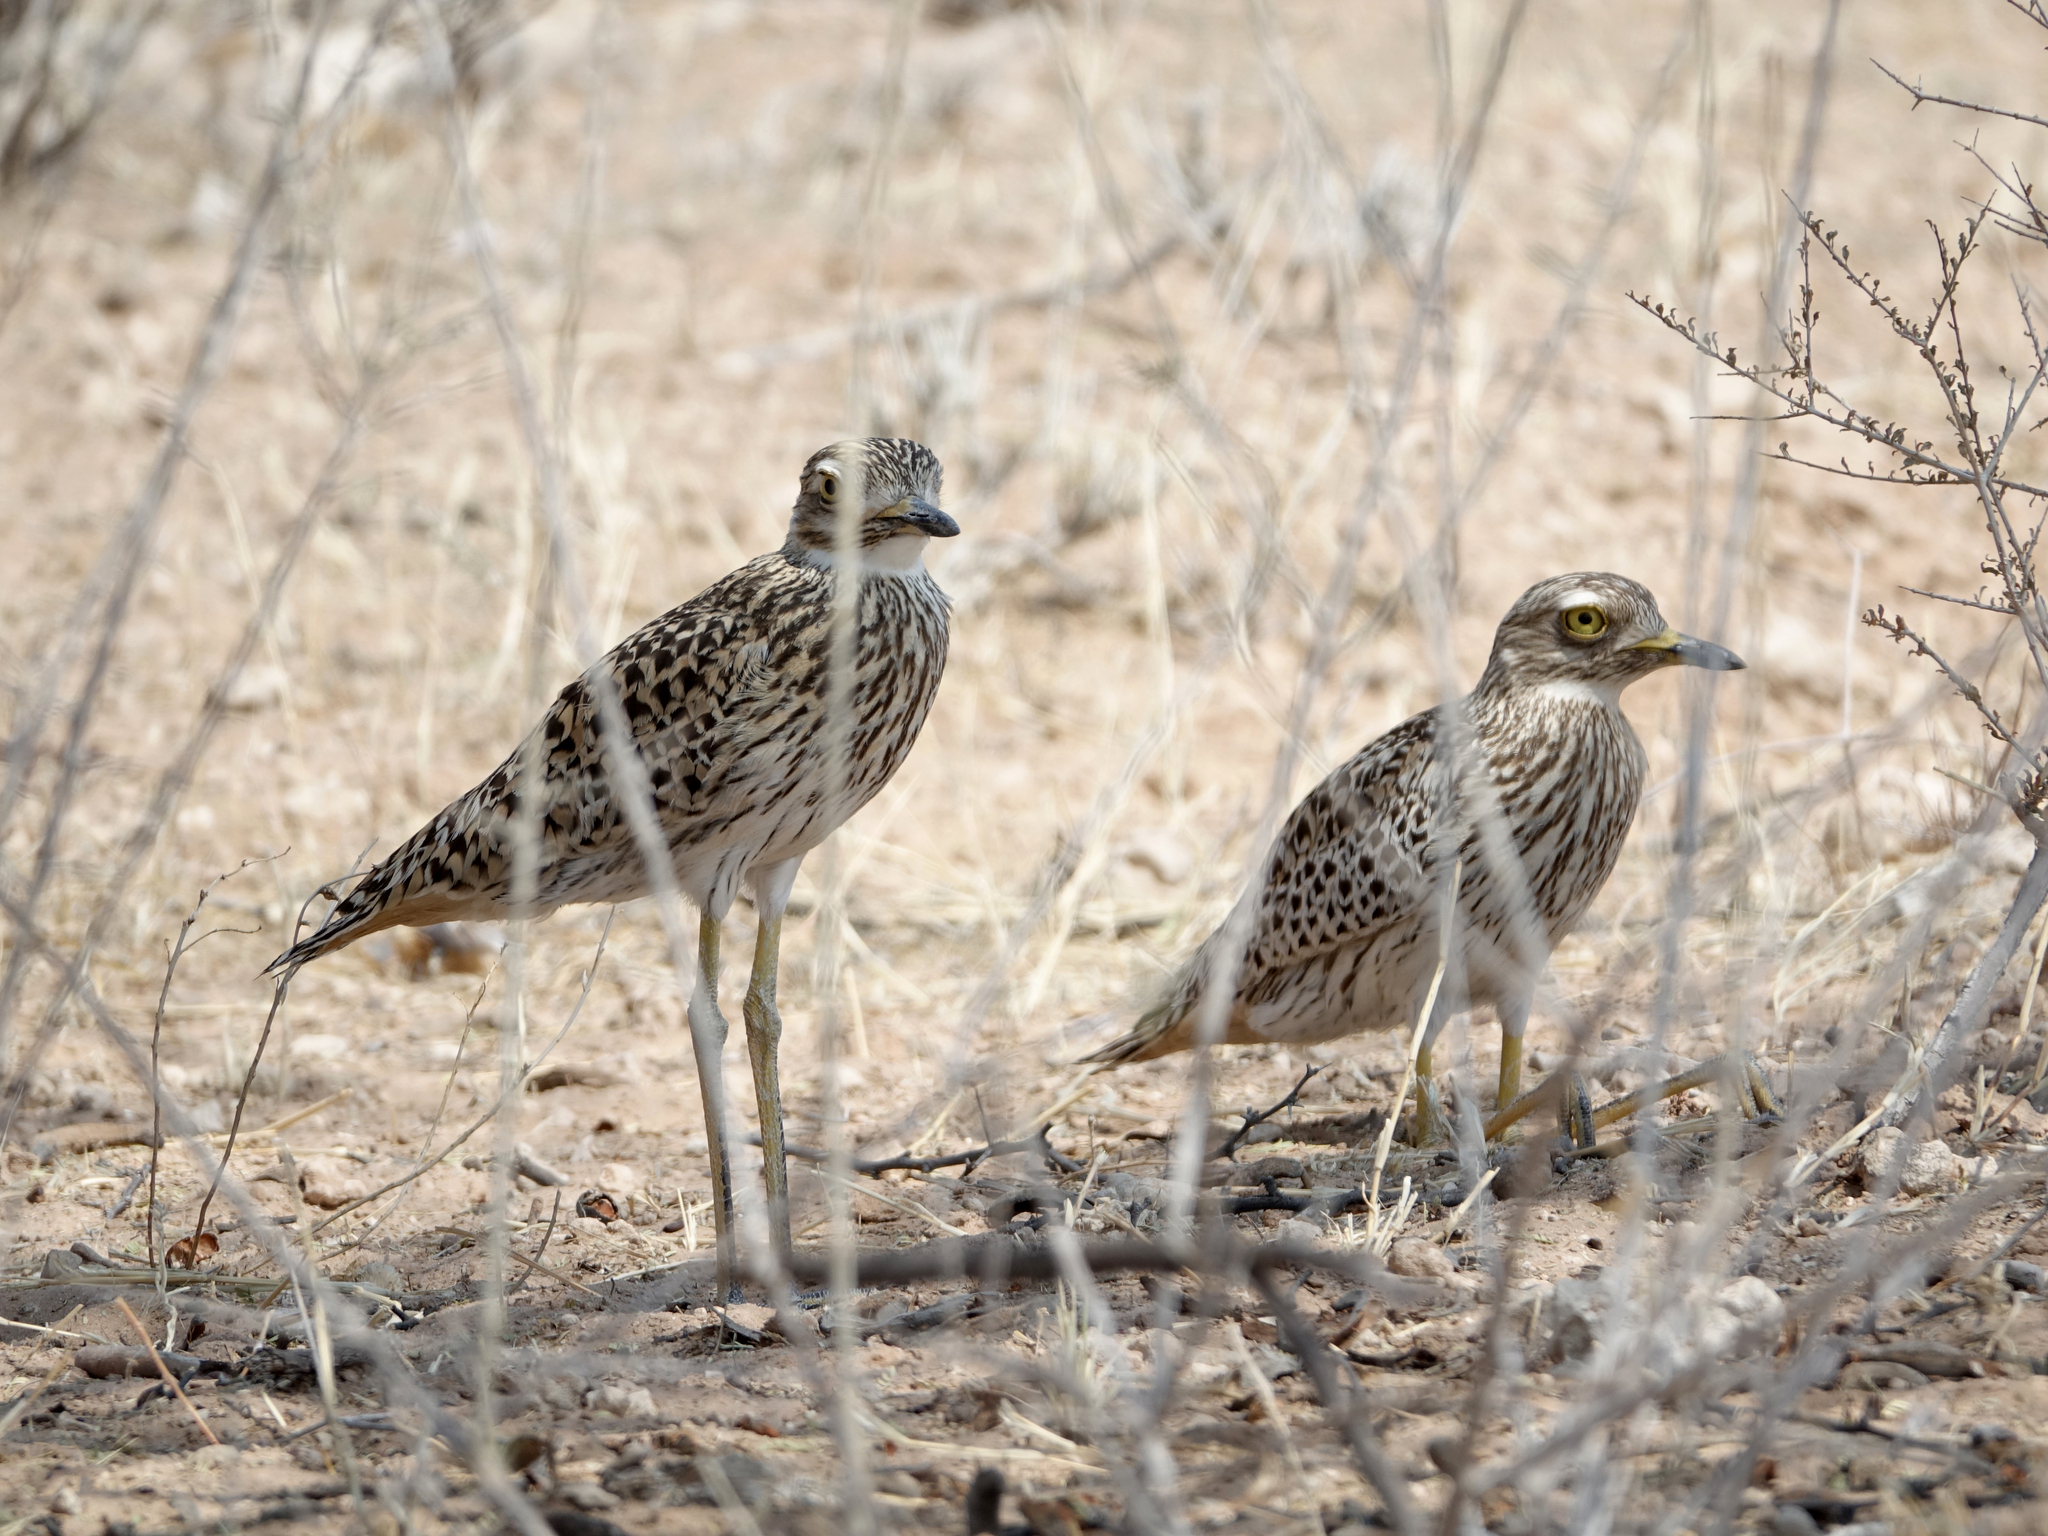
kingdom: Animalia
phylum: Chordata
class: Aves
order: Charadriiformes
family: Burhinidae
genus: Burhinus
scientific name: Burhinus capensis
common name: Spotted thick-knee
